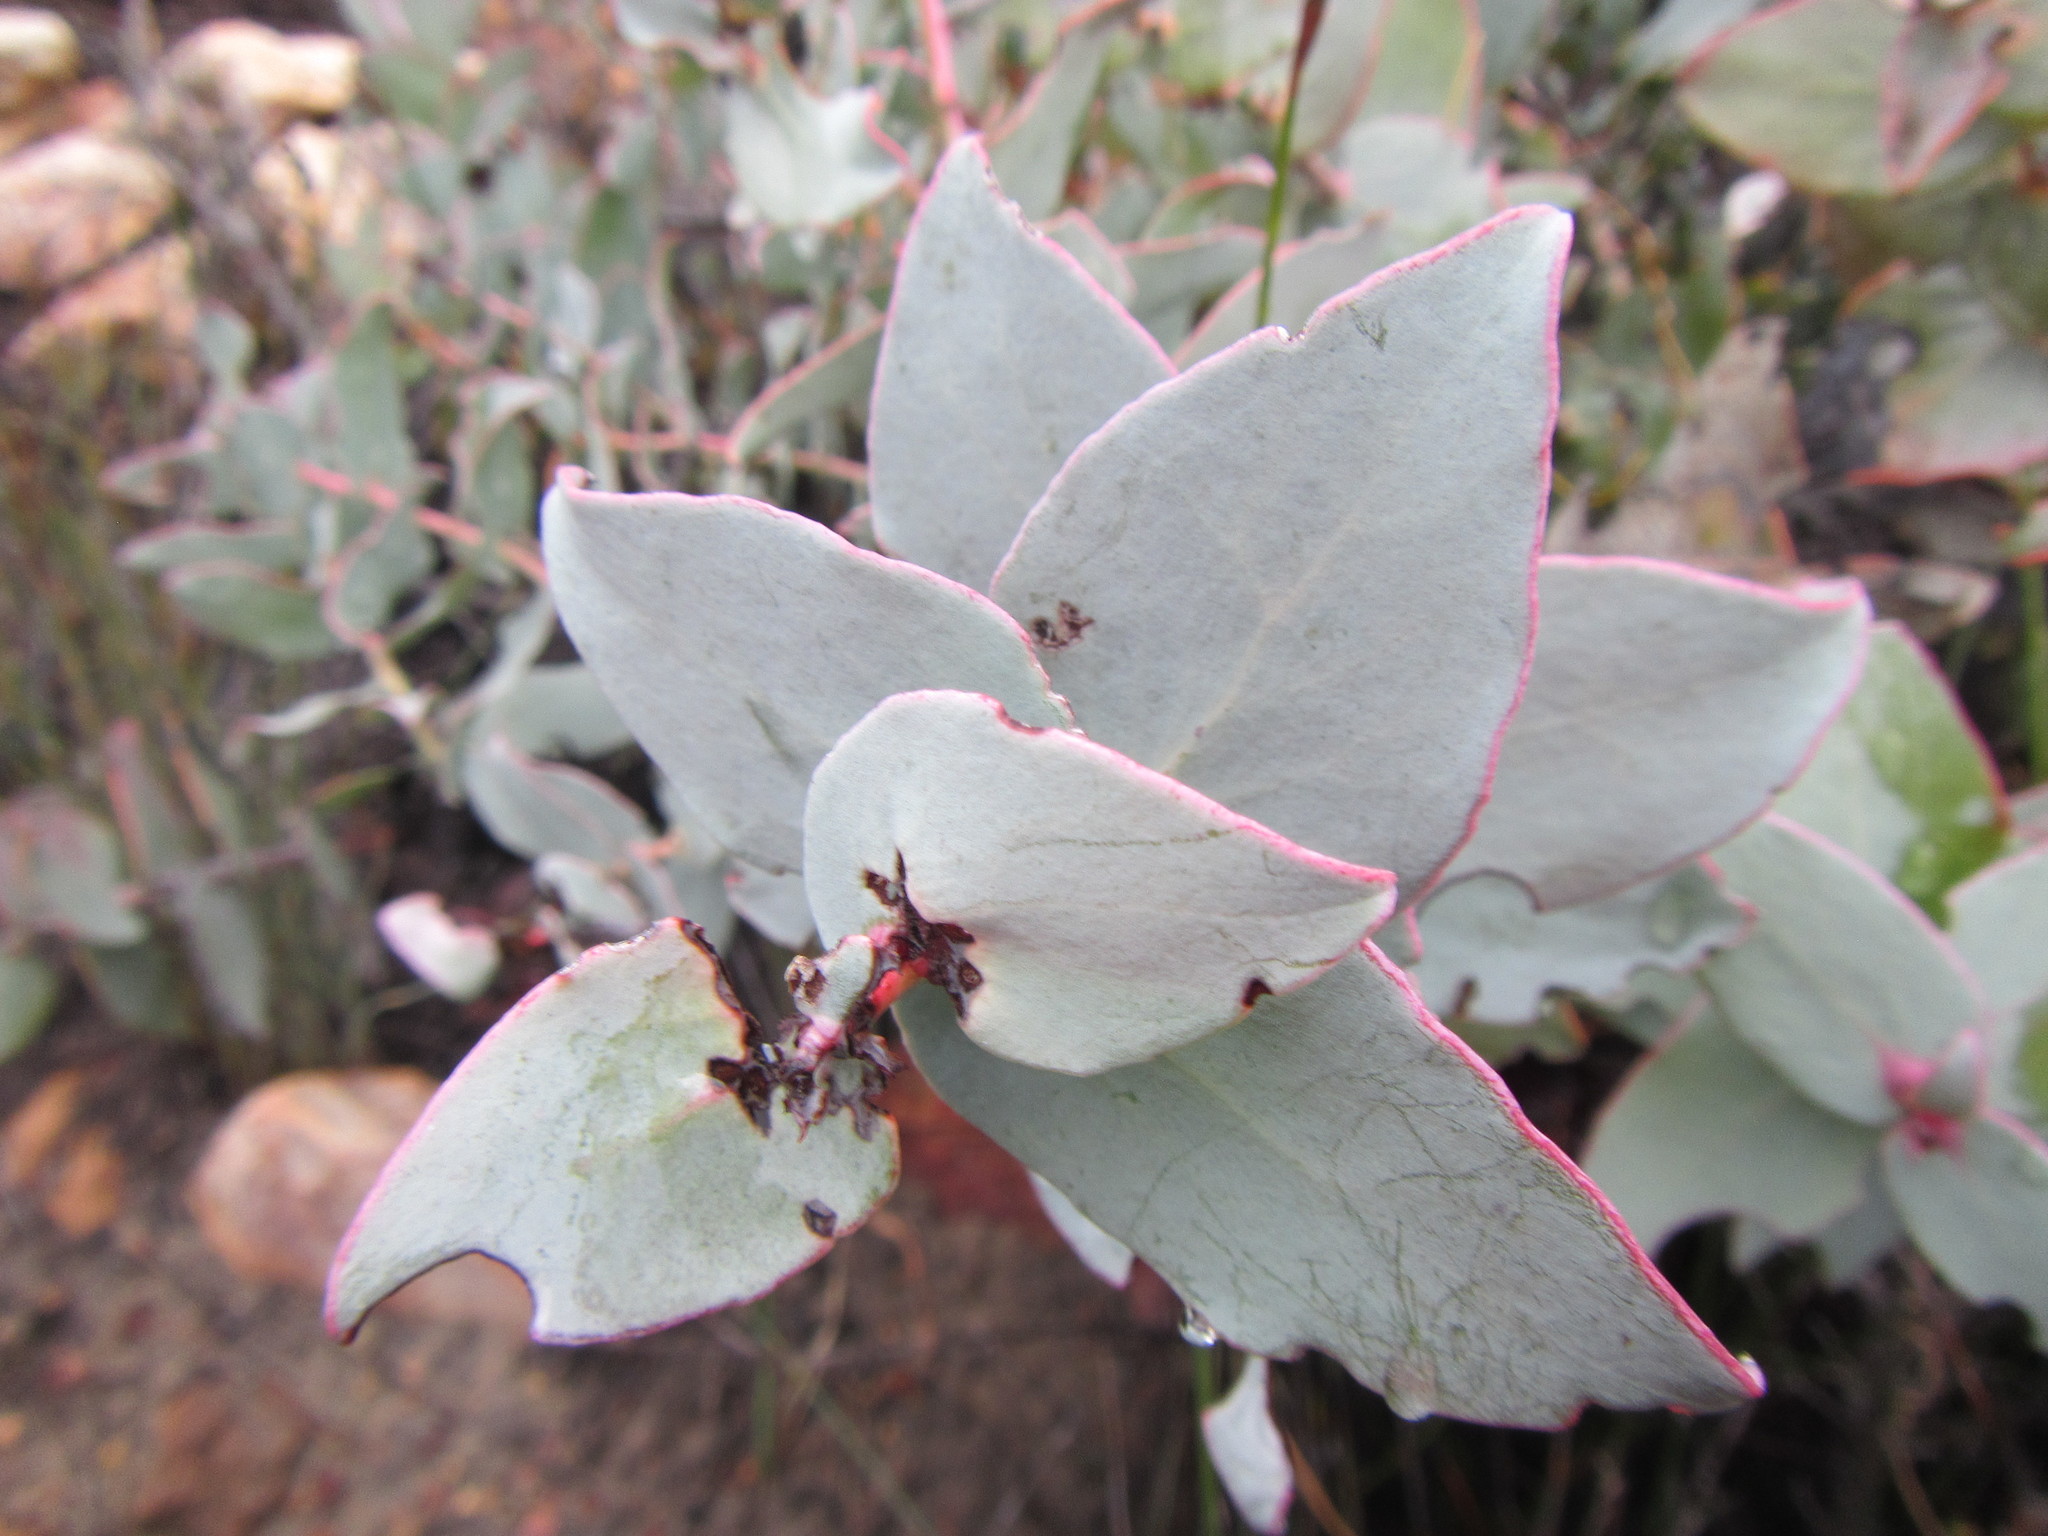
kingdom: Plantae
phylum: Tracheophyta
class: Magnoliopsida
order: Proteales
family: Proteaceae
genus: Protea
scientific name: Protea amplexicaulis
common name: Clasping-leaf sugarbush
